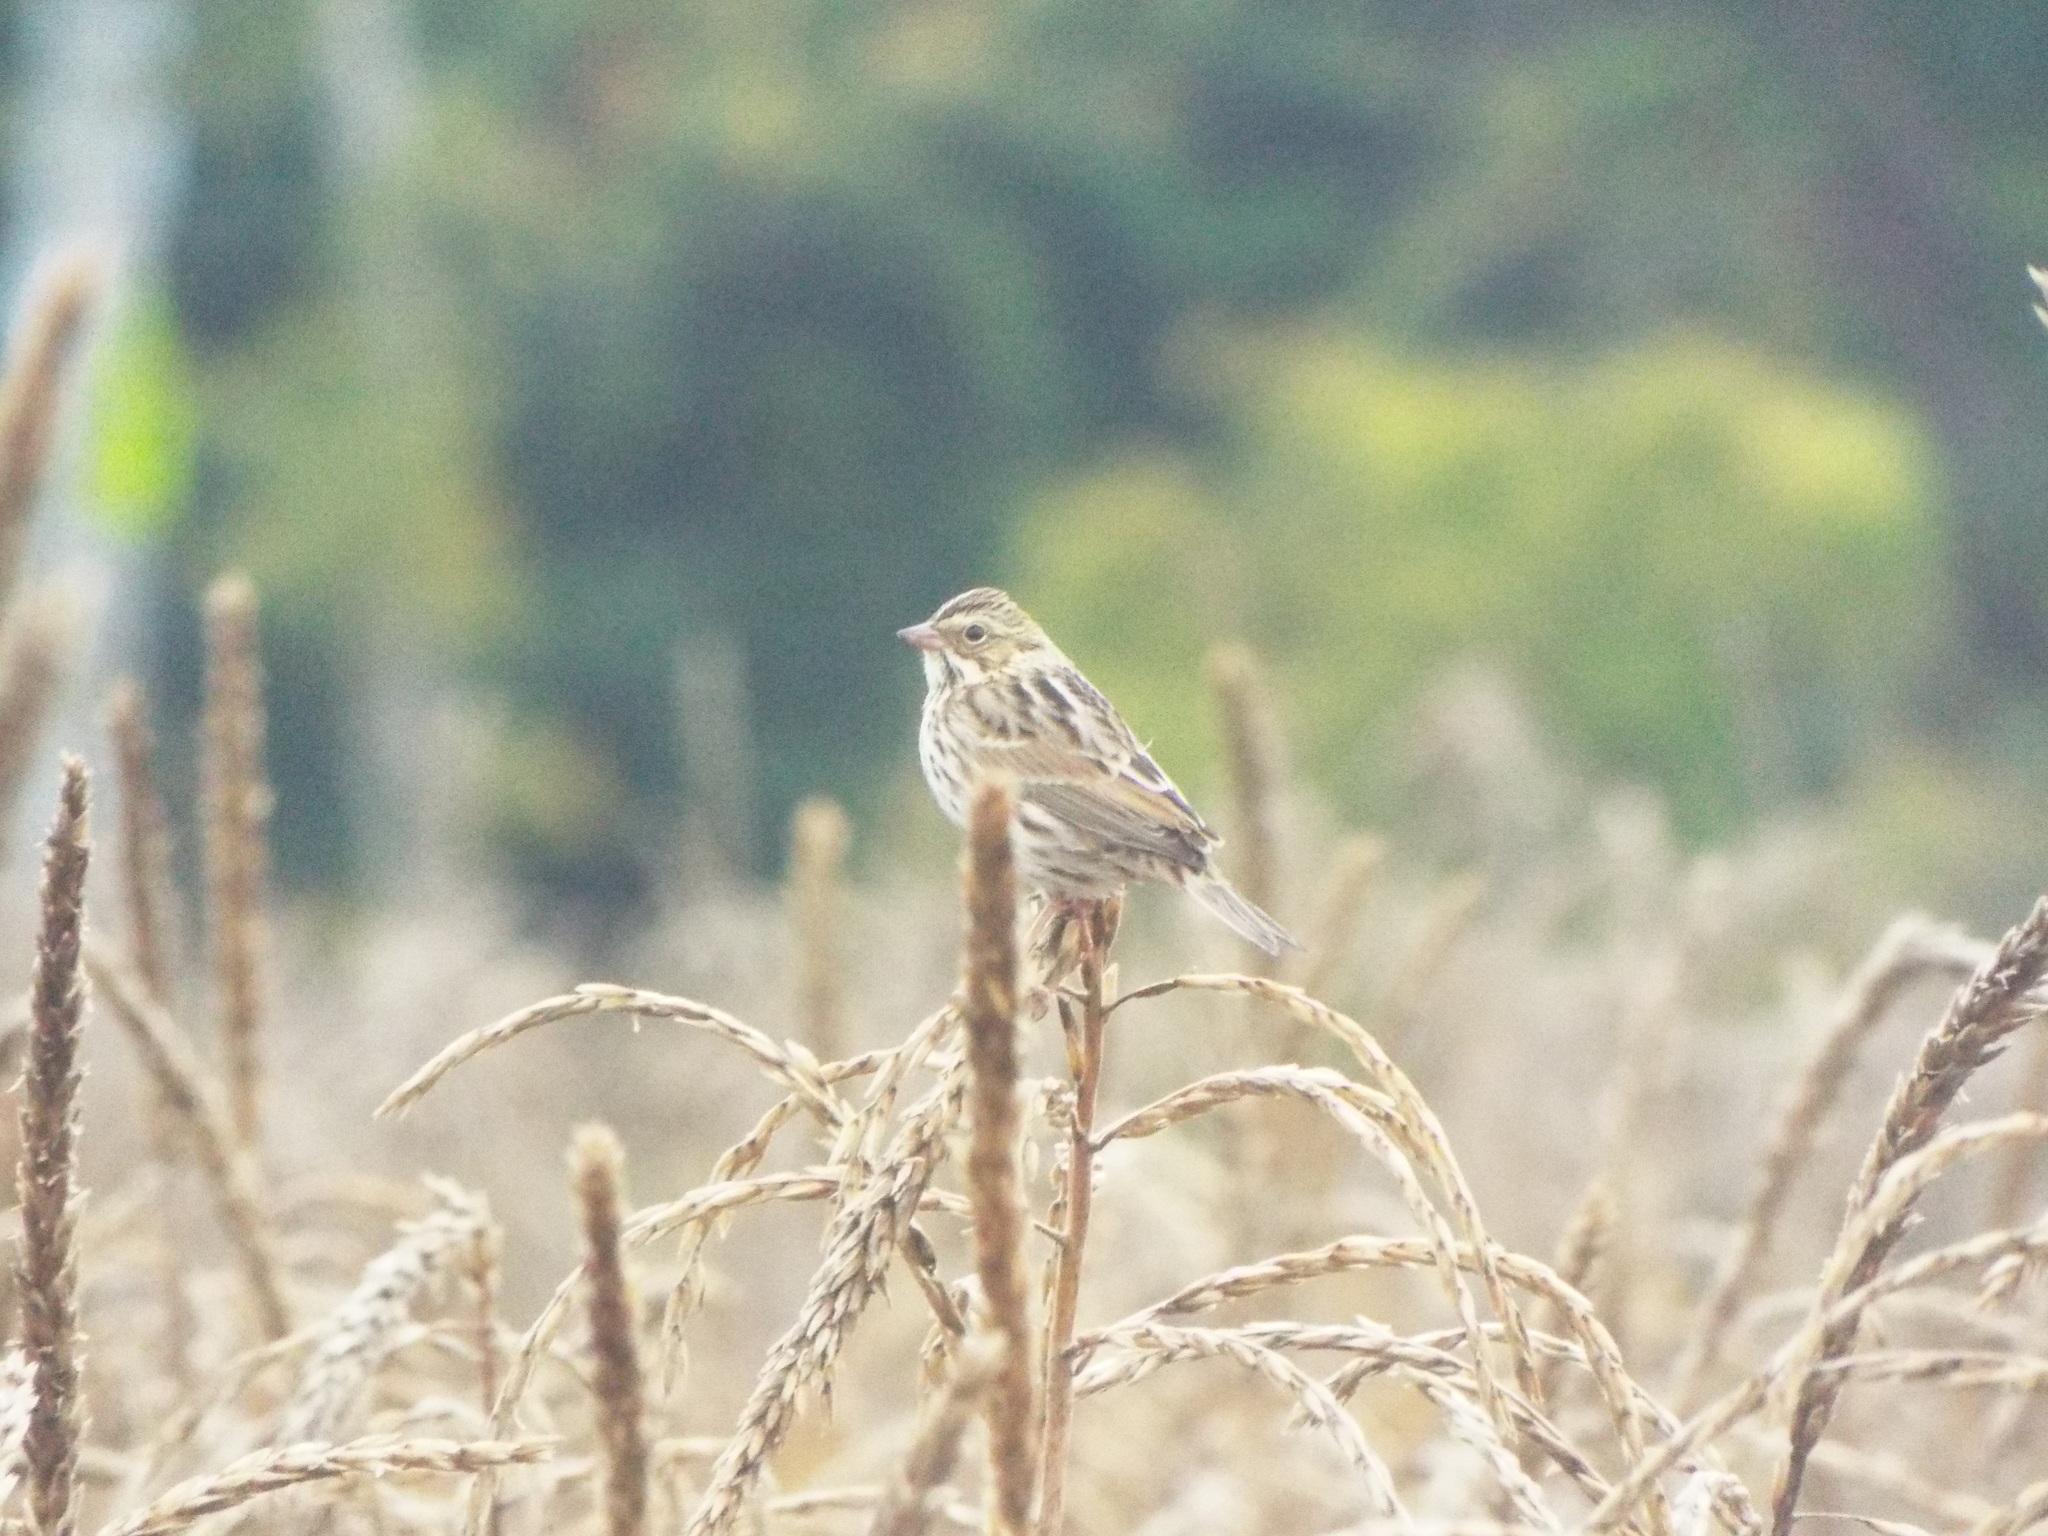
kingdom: Animalia
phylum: Chordata
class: Aves
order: Passeriformes
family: Passerellidae
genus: Passerculus
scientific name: Passerculus sandwichensis
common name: Savannah sparrow
